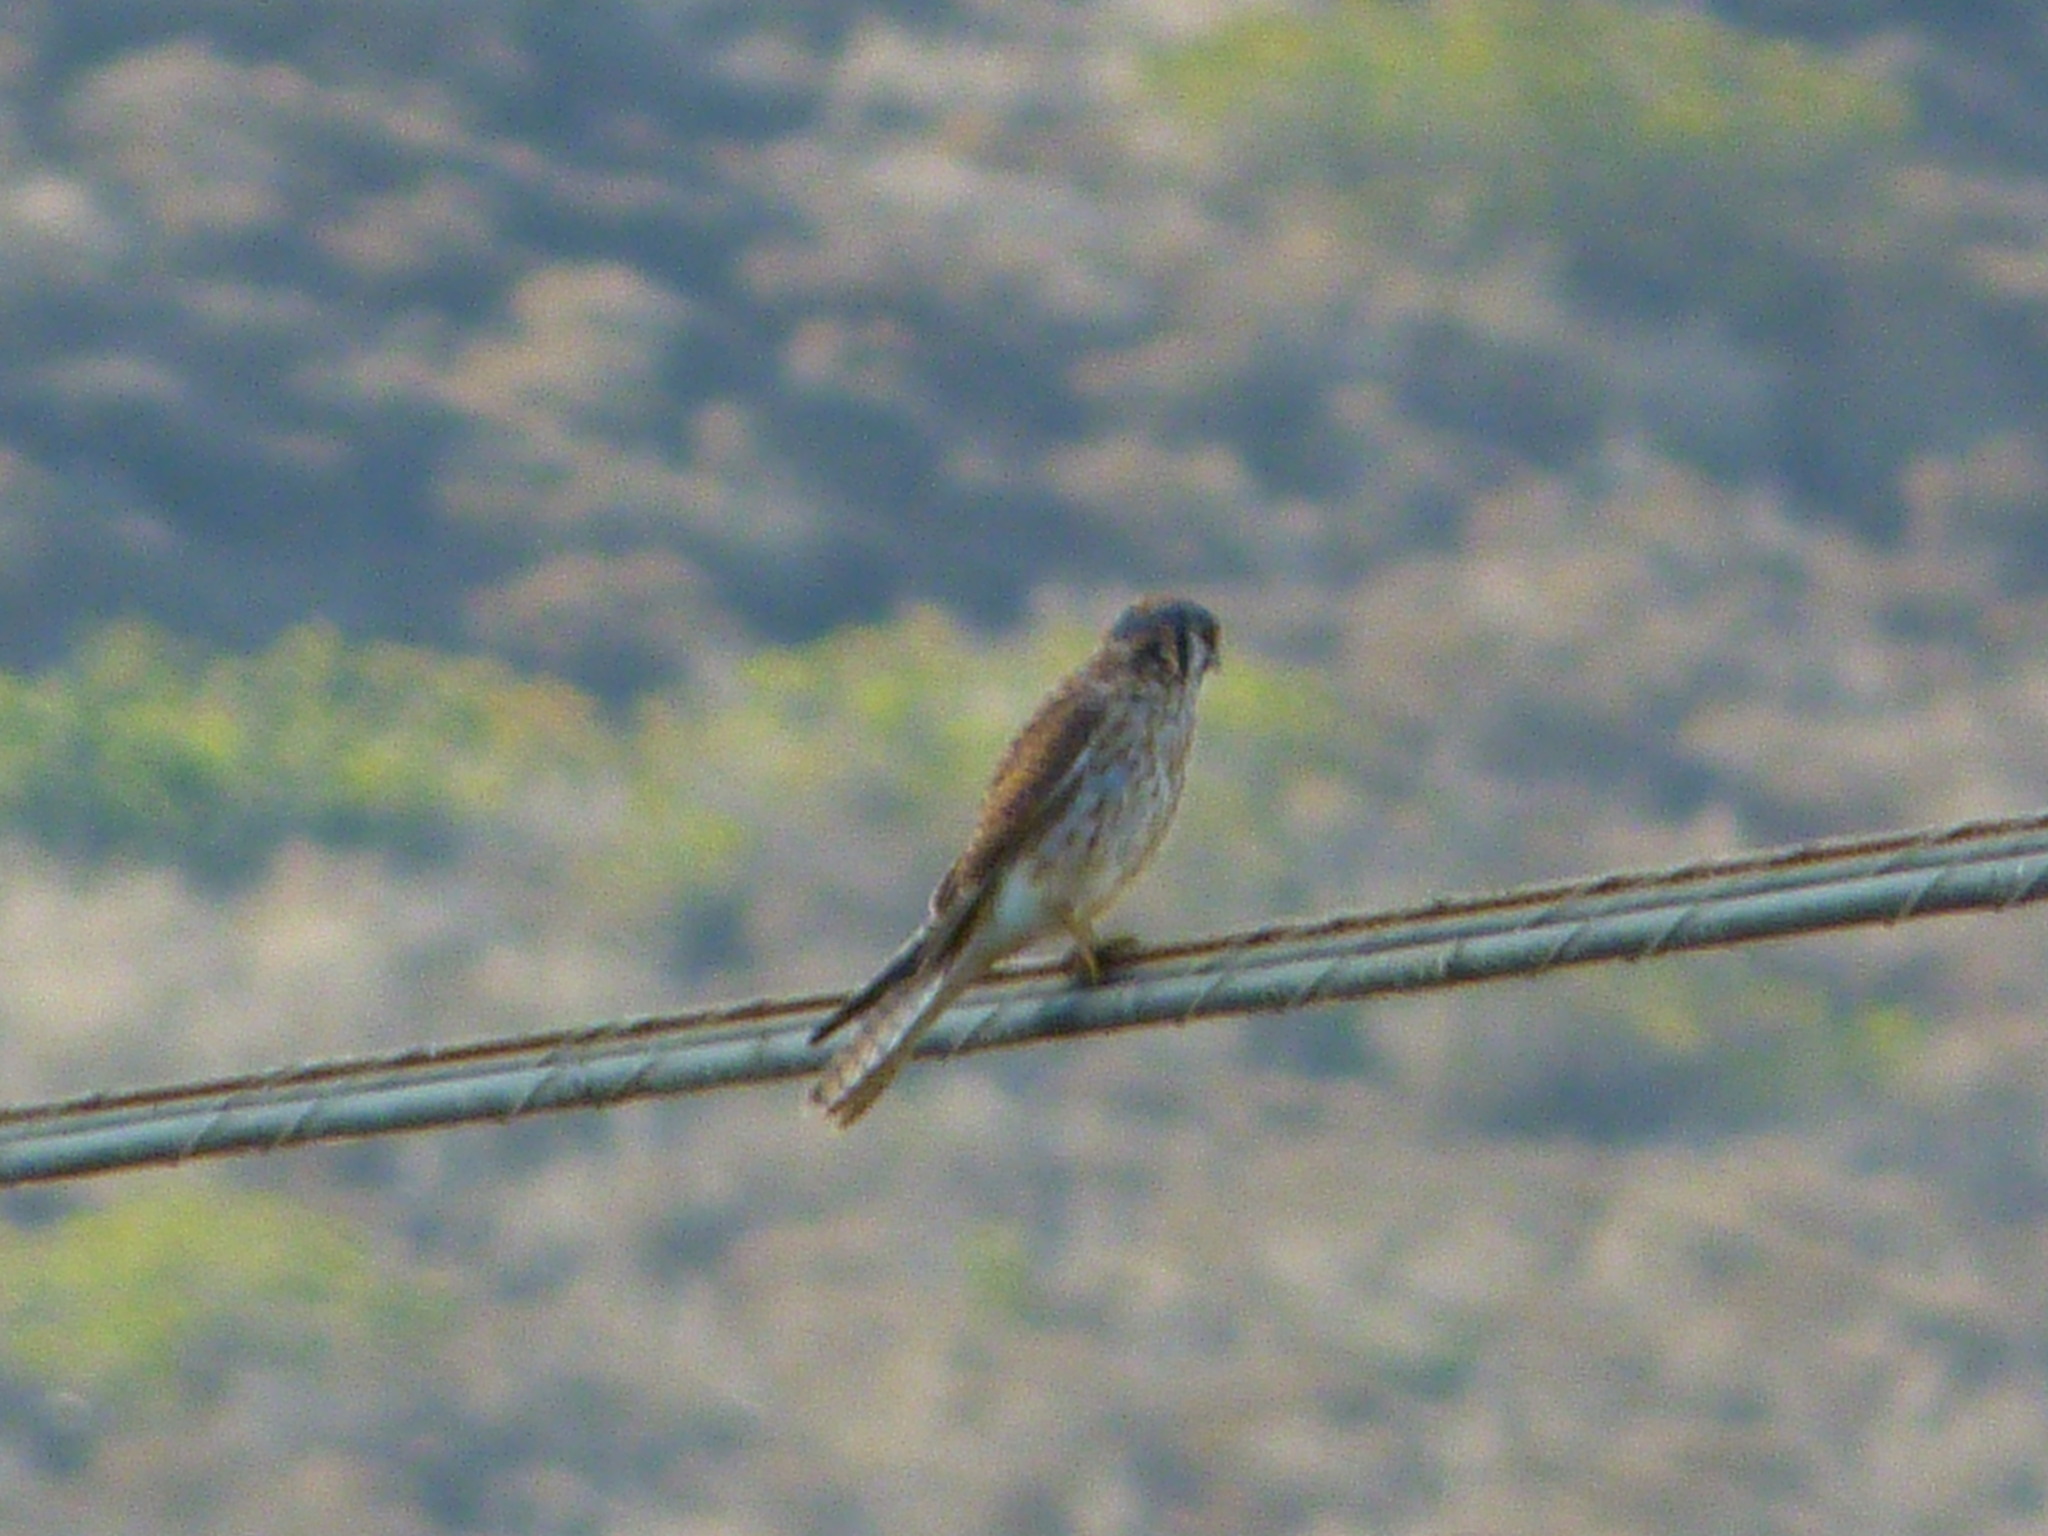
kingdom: Animalia
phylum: Chordata
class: Aves
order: Falconiformes
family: Falconidae
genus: Falco
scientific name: Falco sparverius
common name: American kestrel
